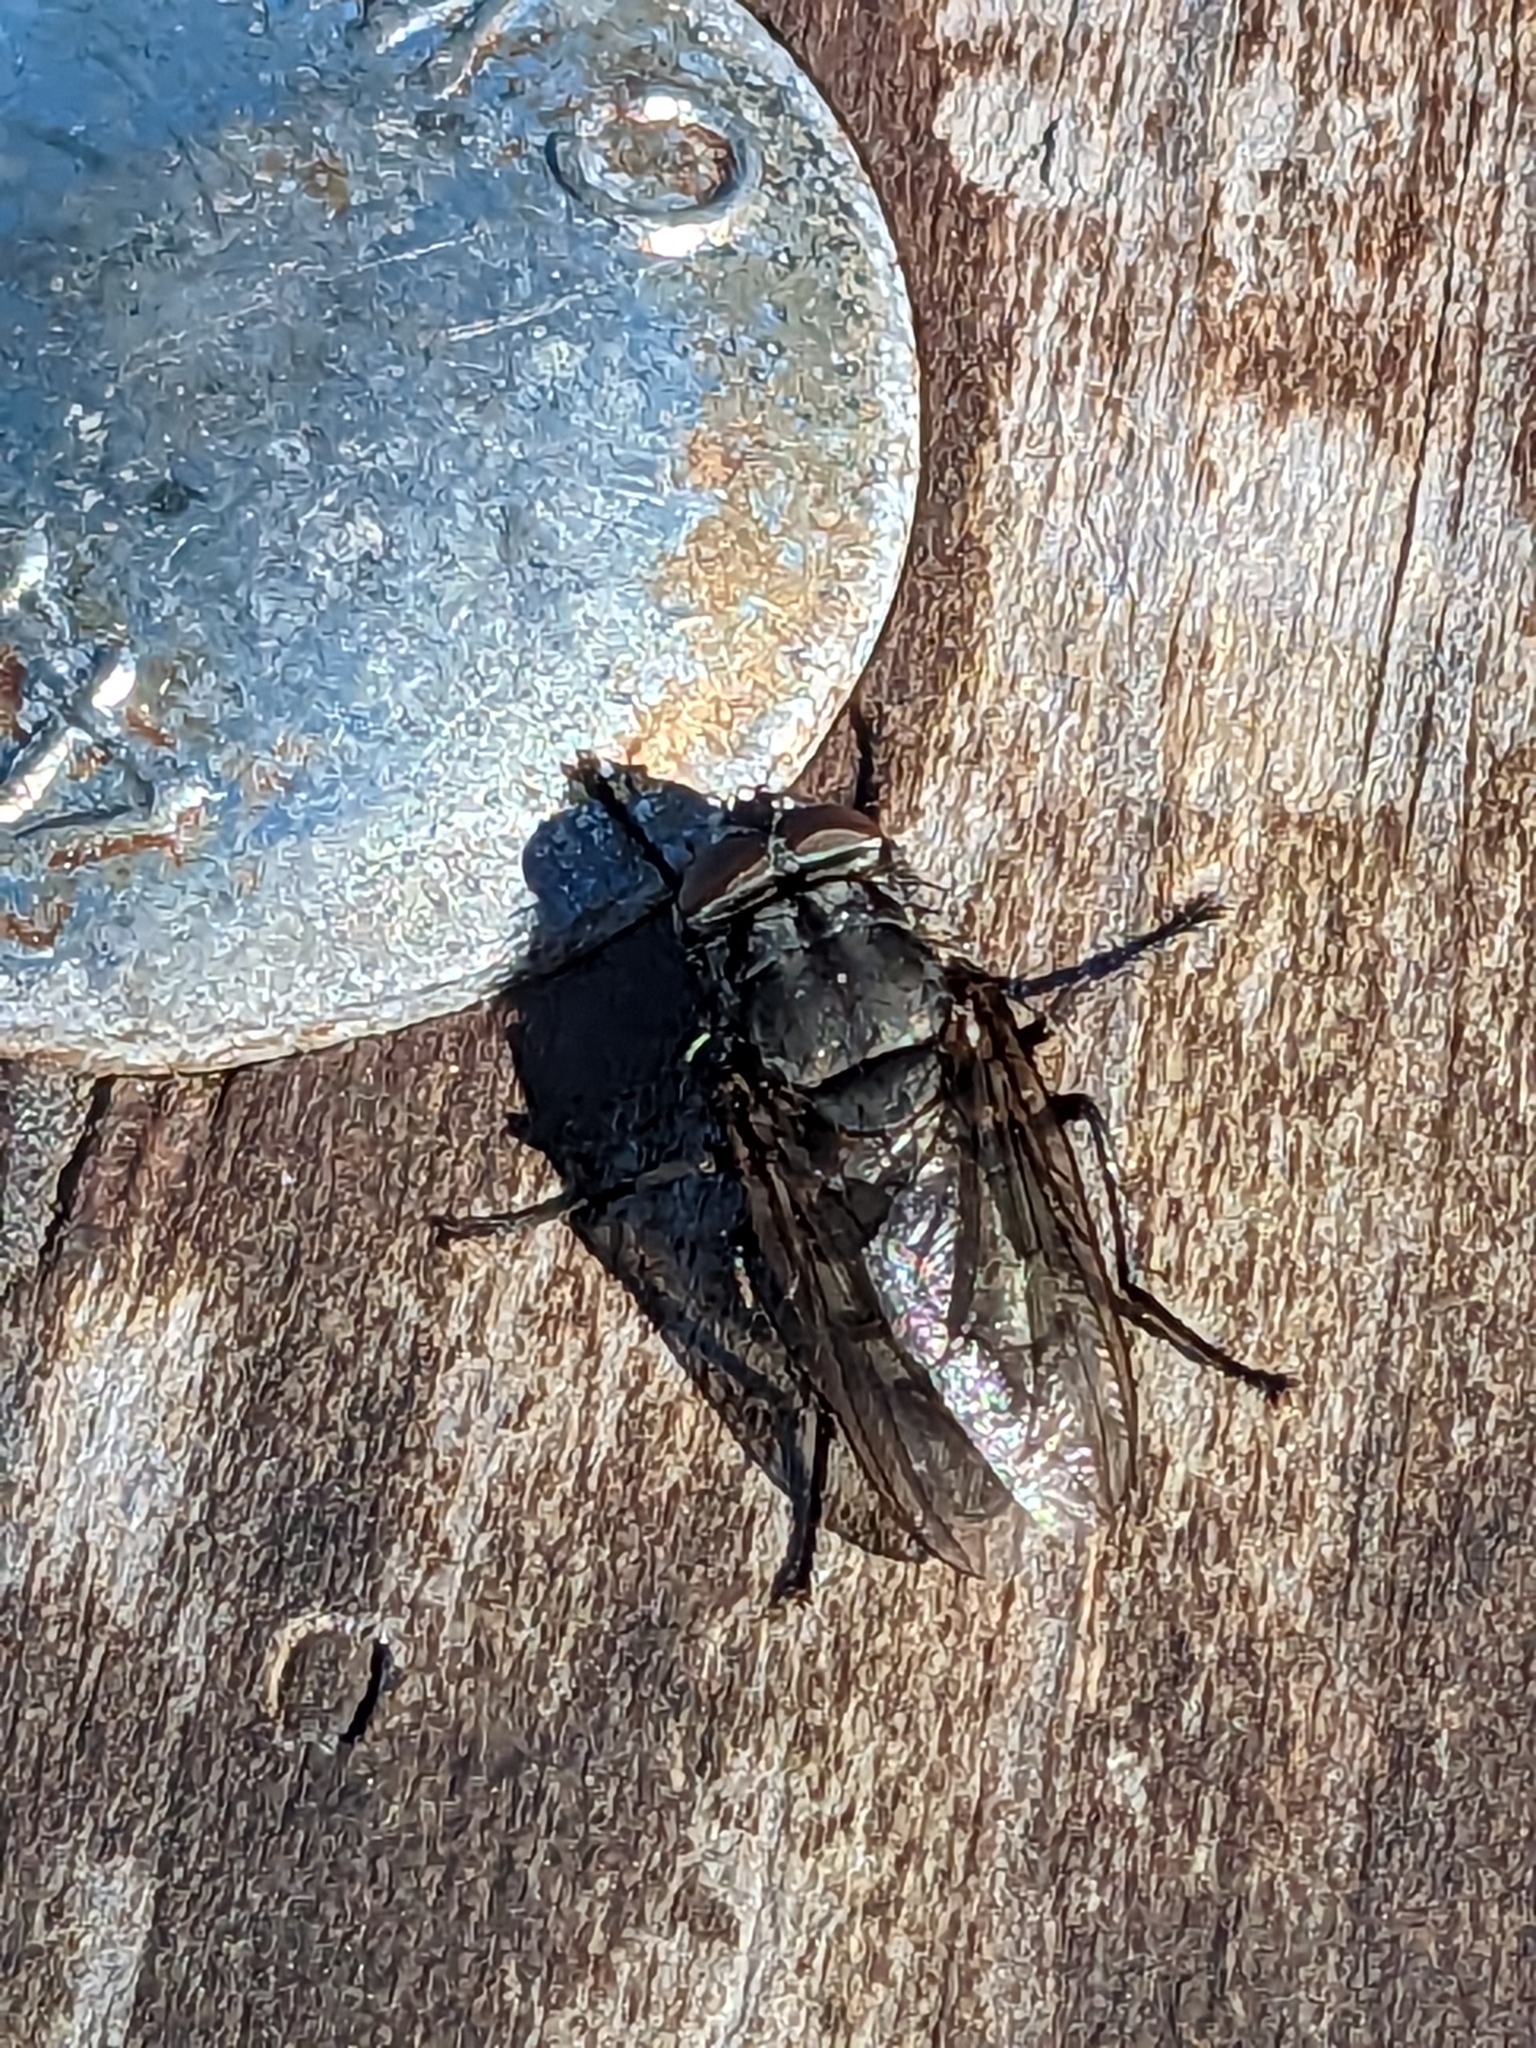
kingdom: Animalia
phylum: Arthropoda
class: Insecta
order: Diptera
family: Polleniidae
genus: Pollenia
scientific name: Pollenia vagabunda
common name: Vagabund cluster fly
